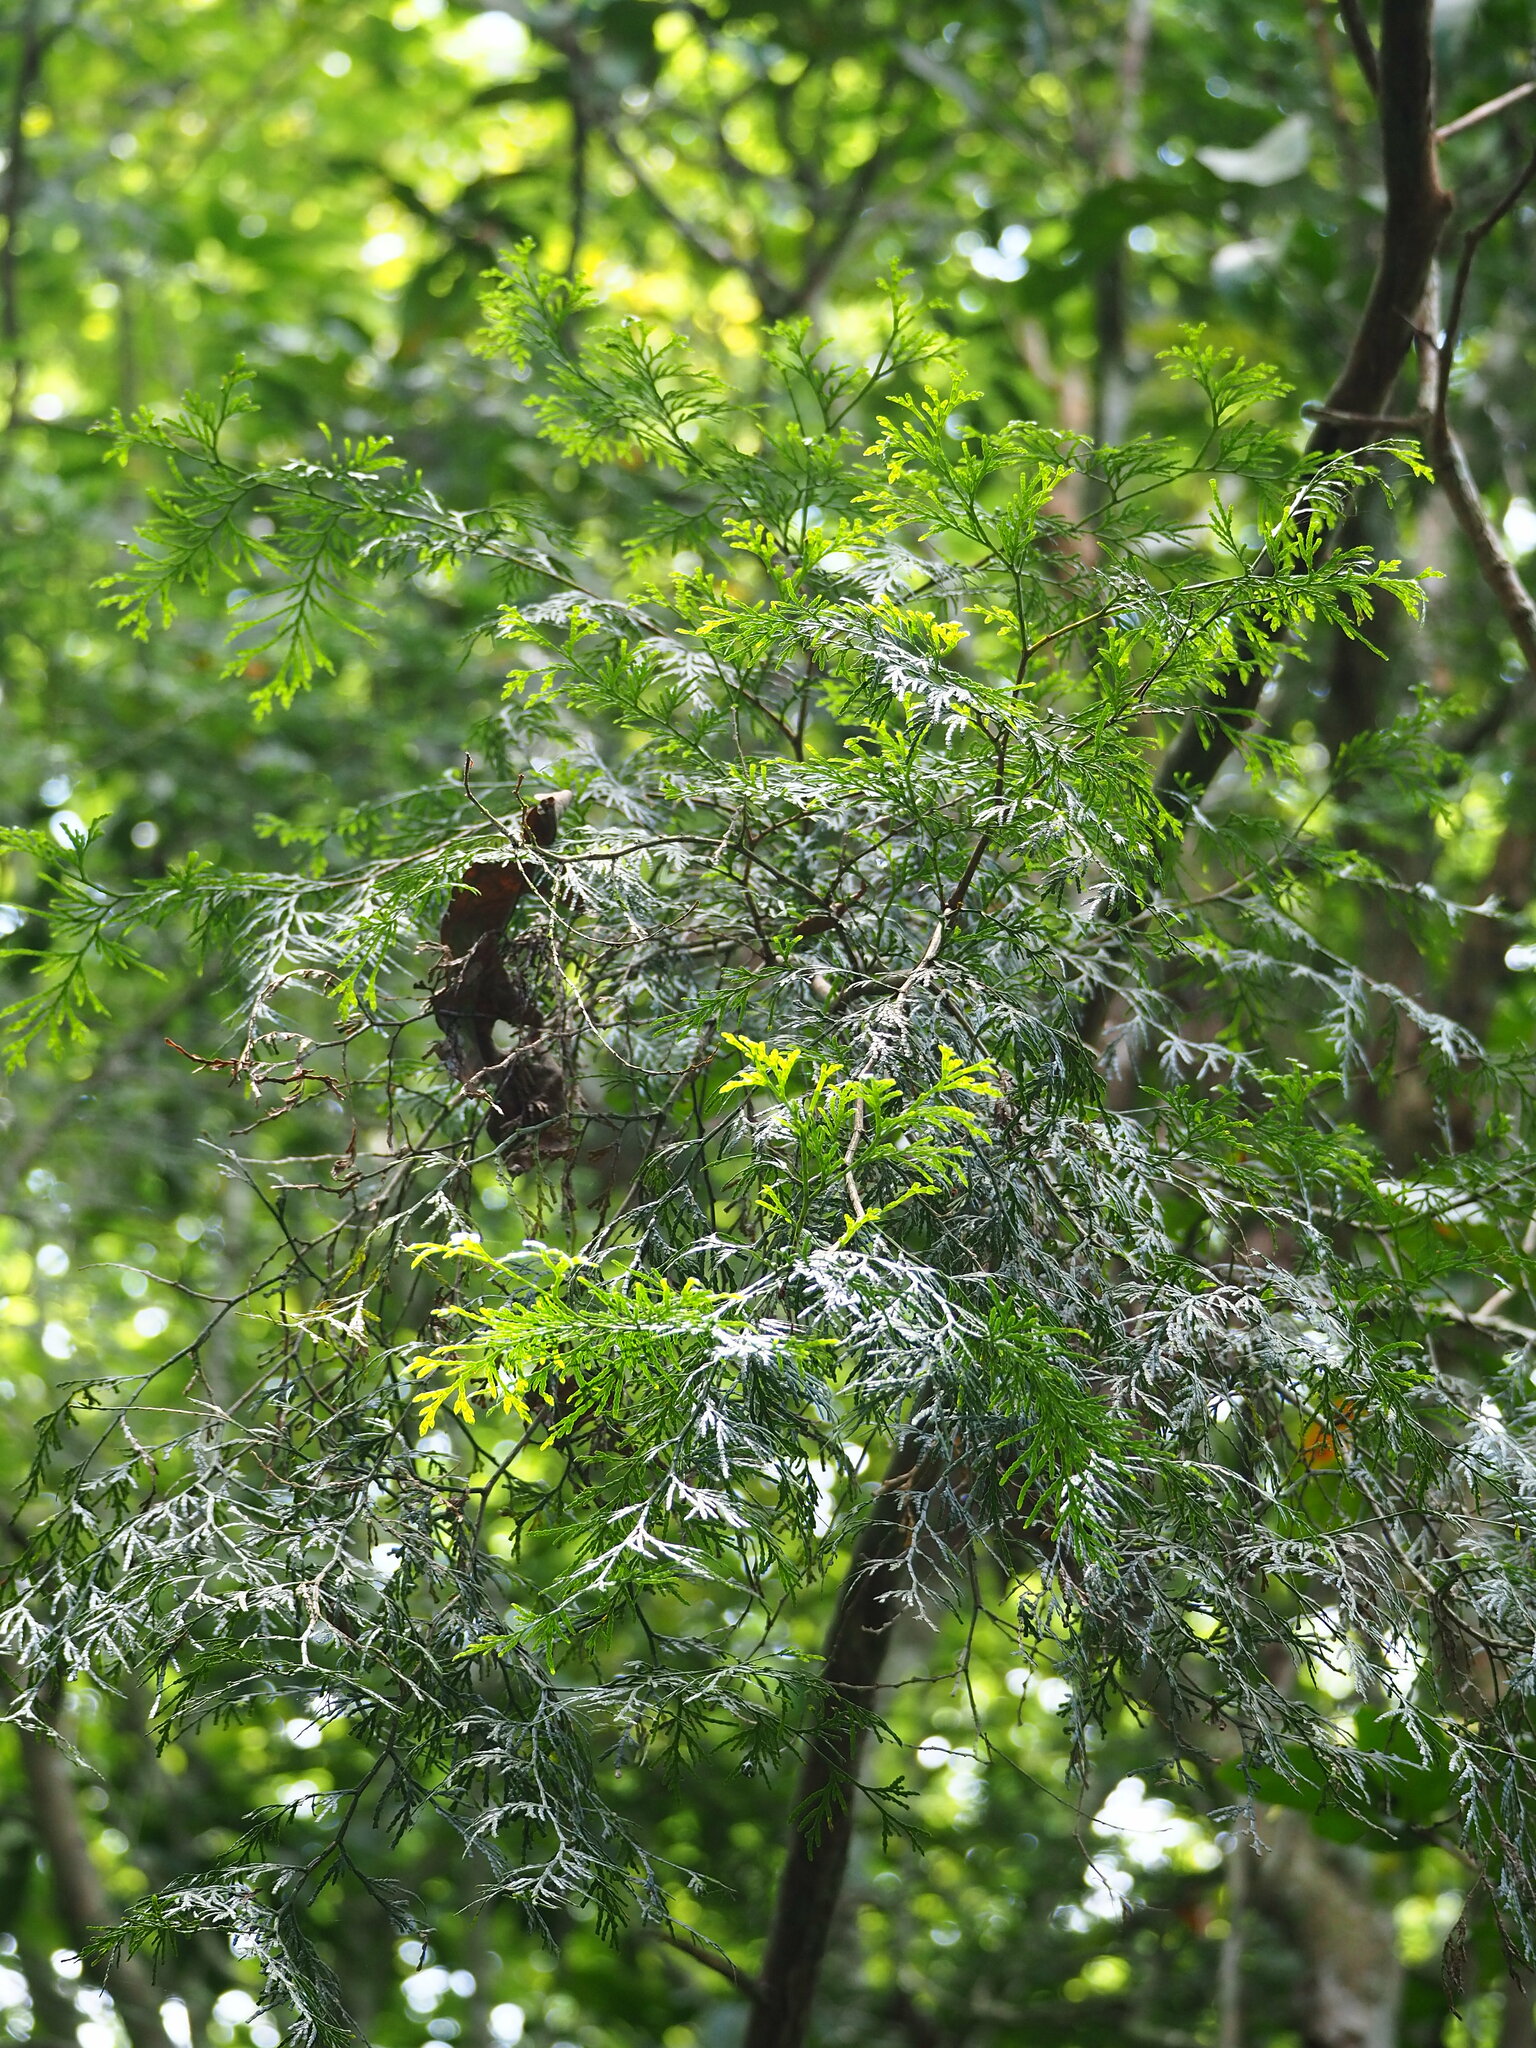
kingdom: Plantae
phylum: Tracheophyta
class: Pinopsida
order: Pinales
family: Cupressaceae
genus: Calocedrus
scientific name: Calocedrus formosana
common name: Taiwan incense-cedar
